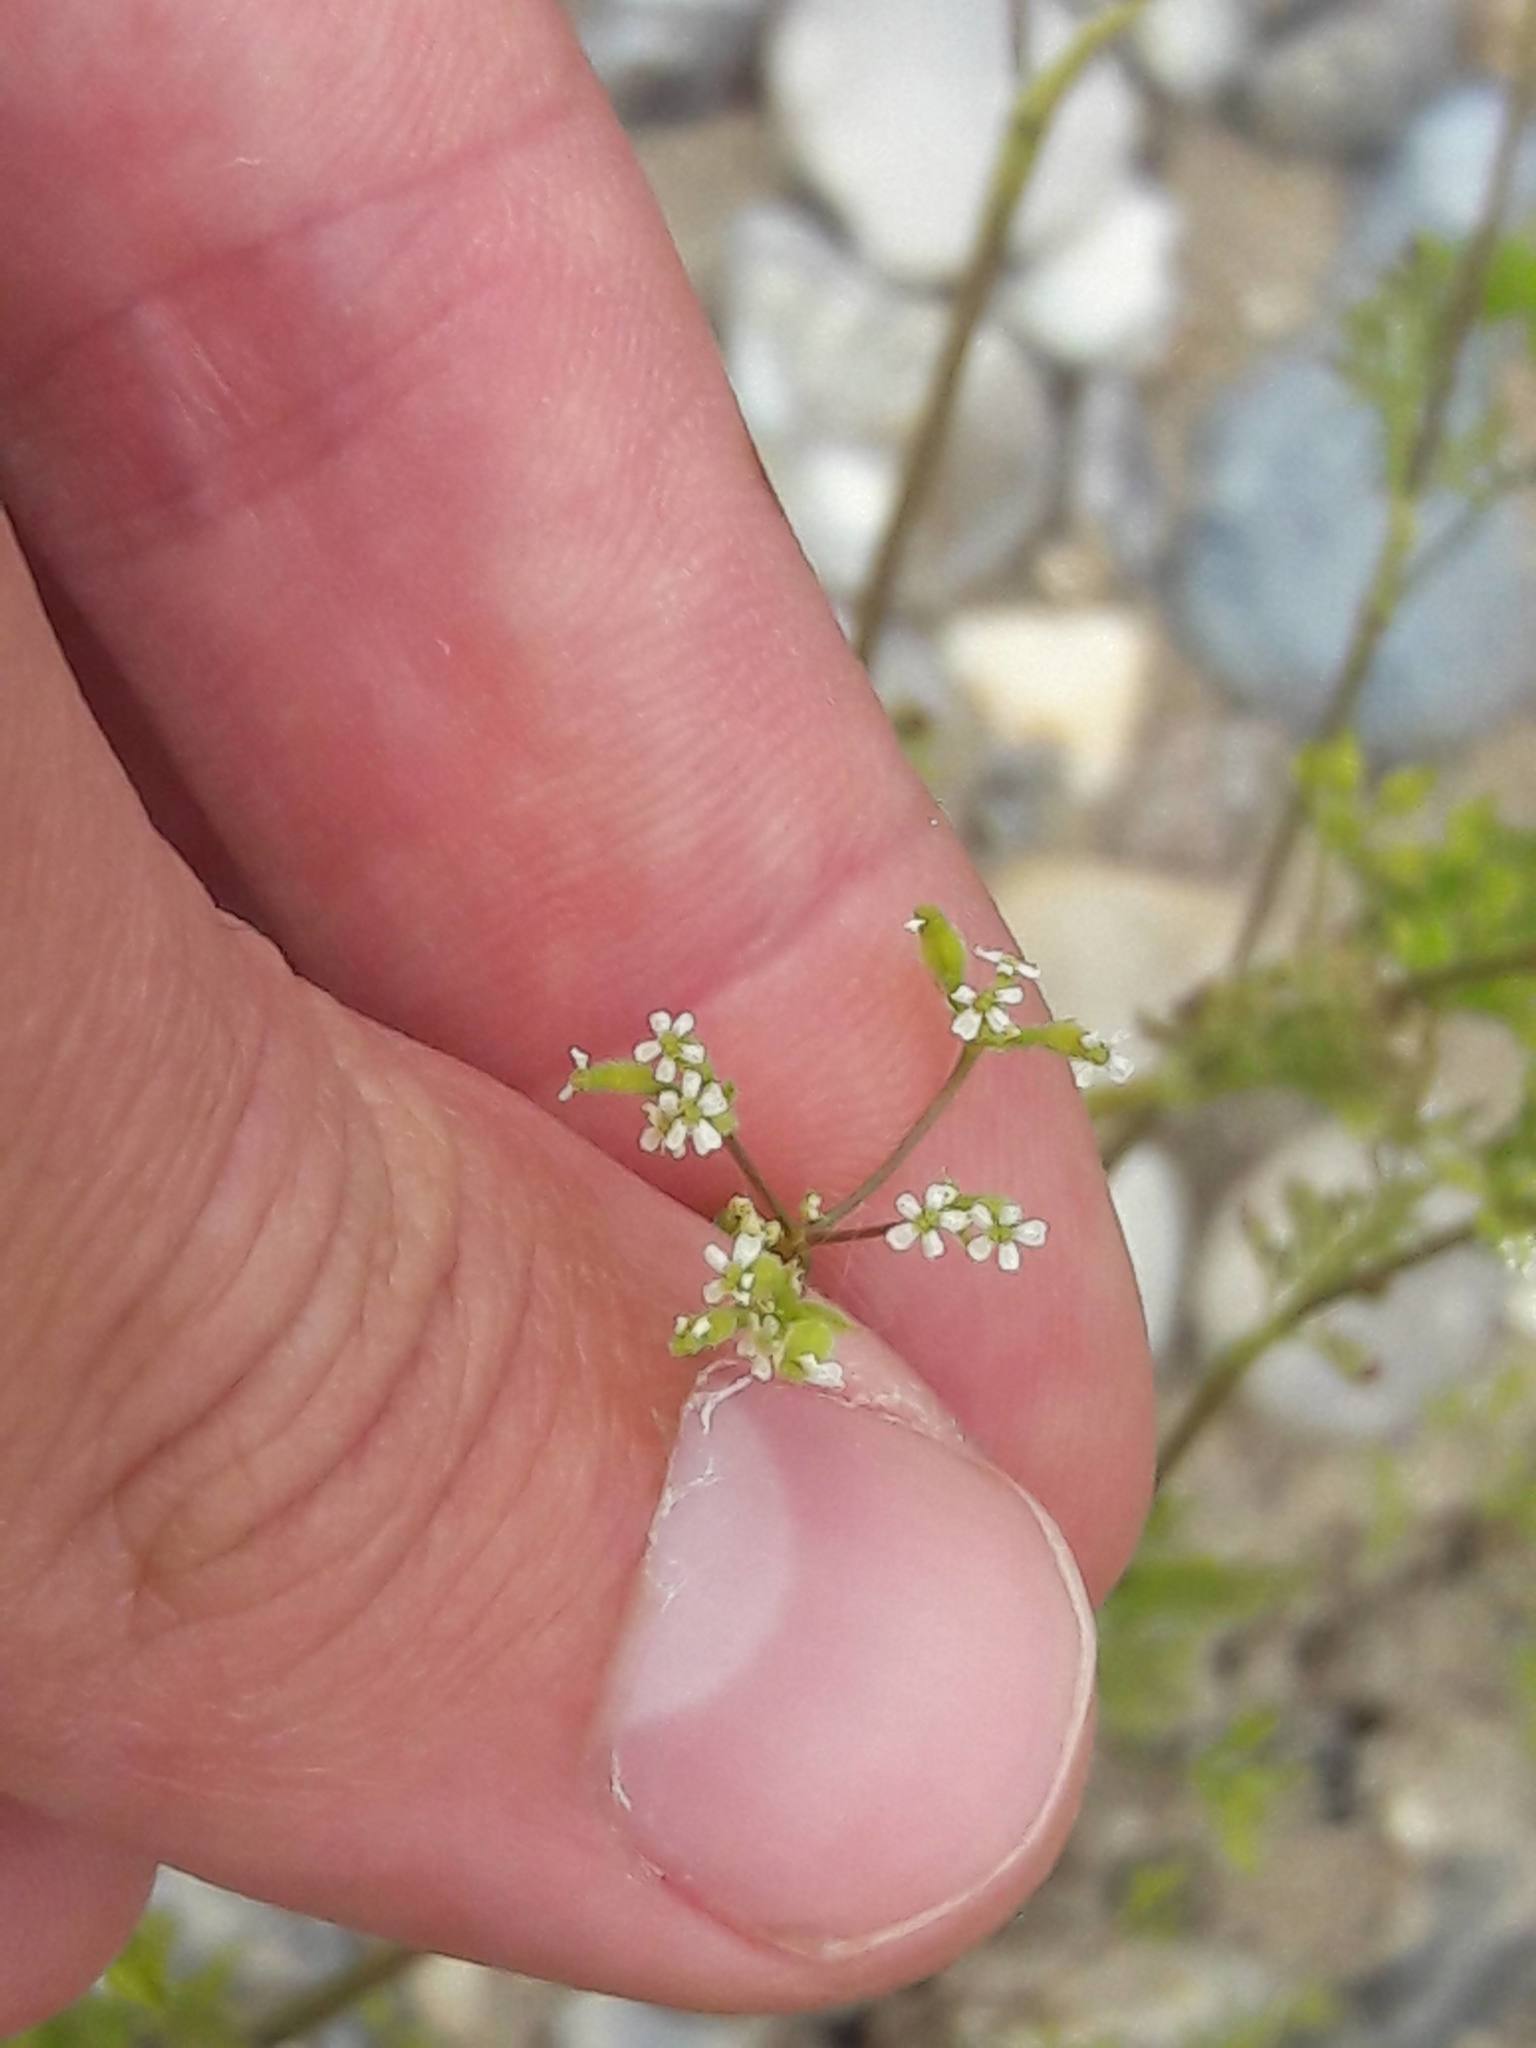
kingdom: Plantae
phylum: Tracheophyta
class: Magnoliopsida
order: Apiales
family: Apiaceae
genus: Anthriscus
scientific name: Anthriscus caucalis
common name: Bur chervil
